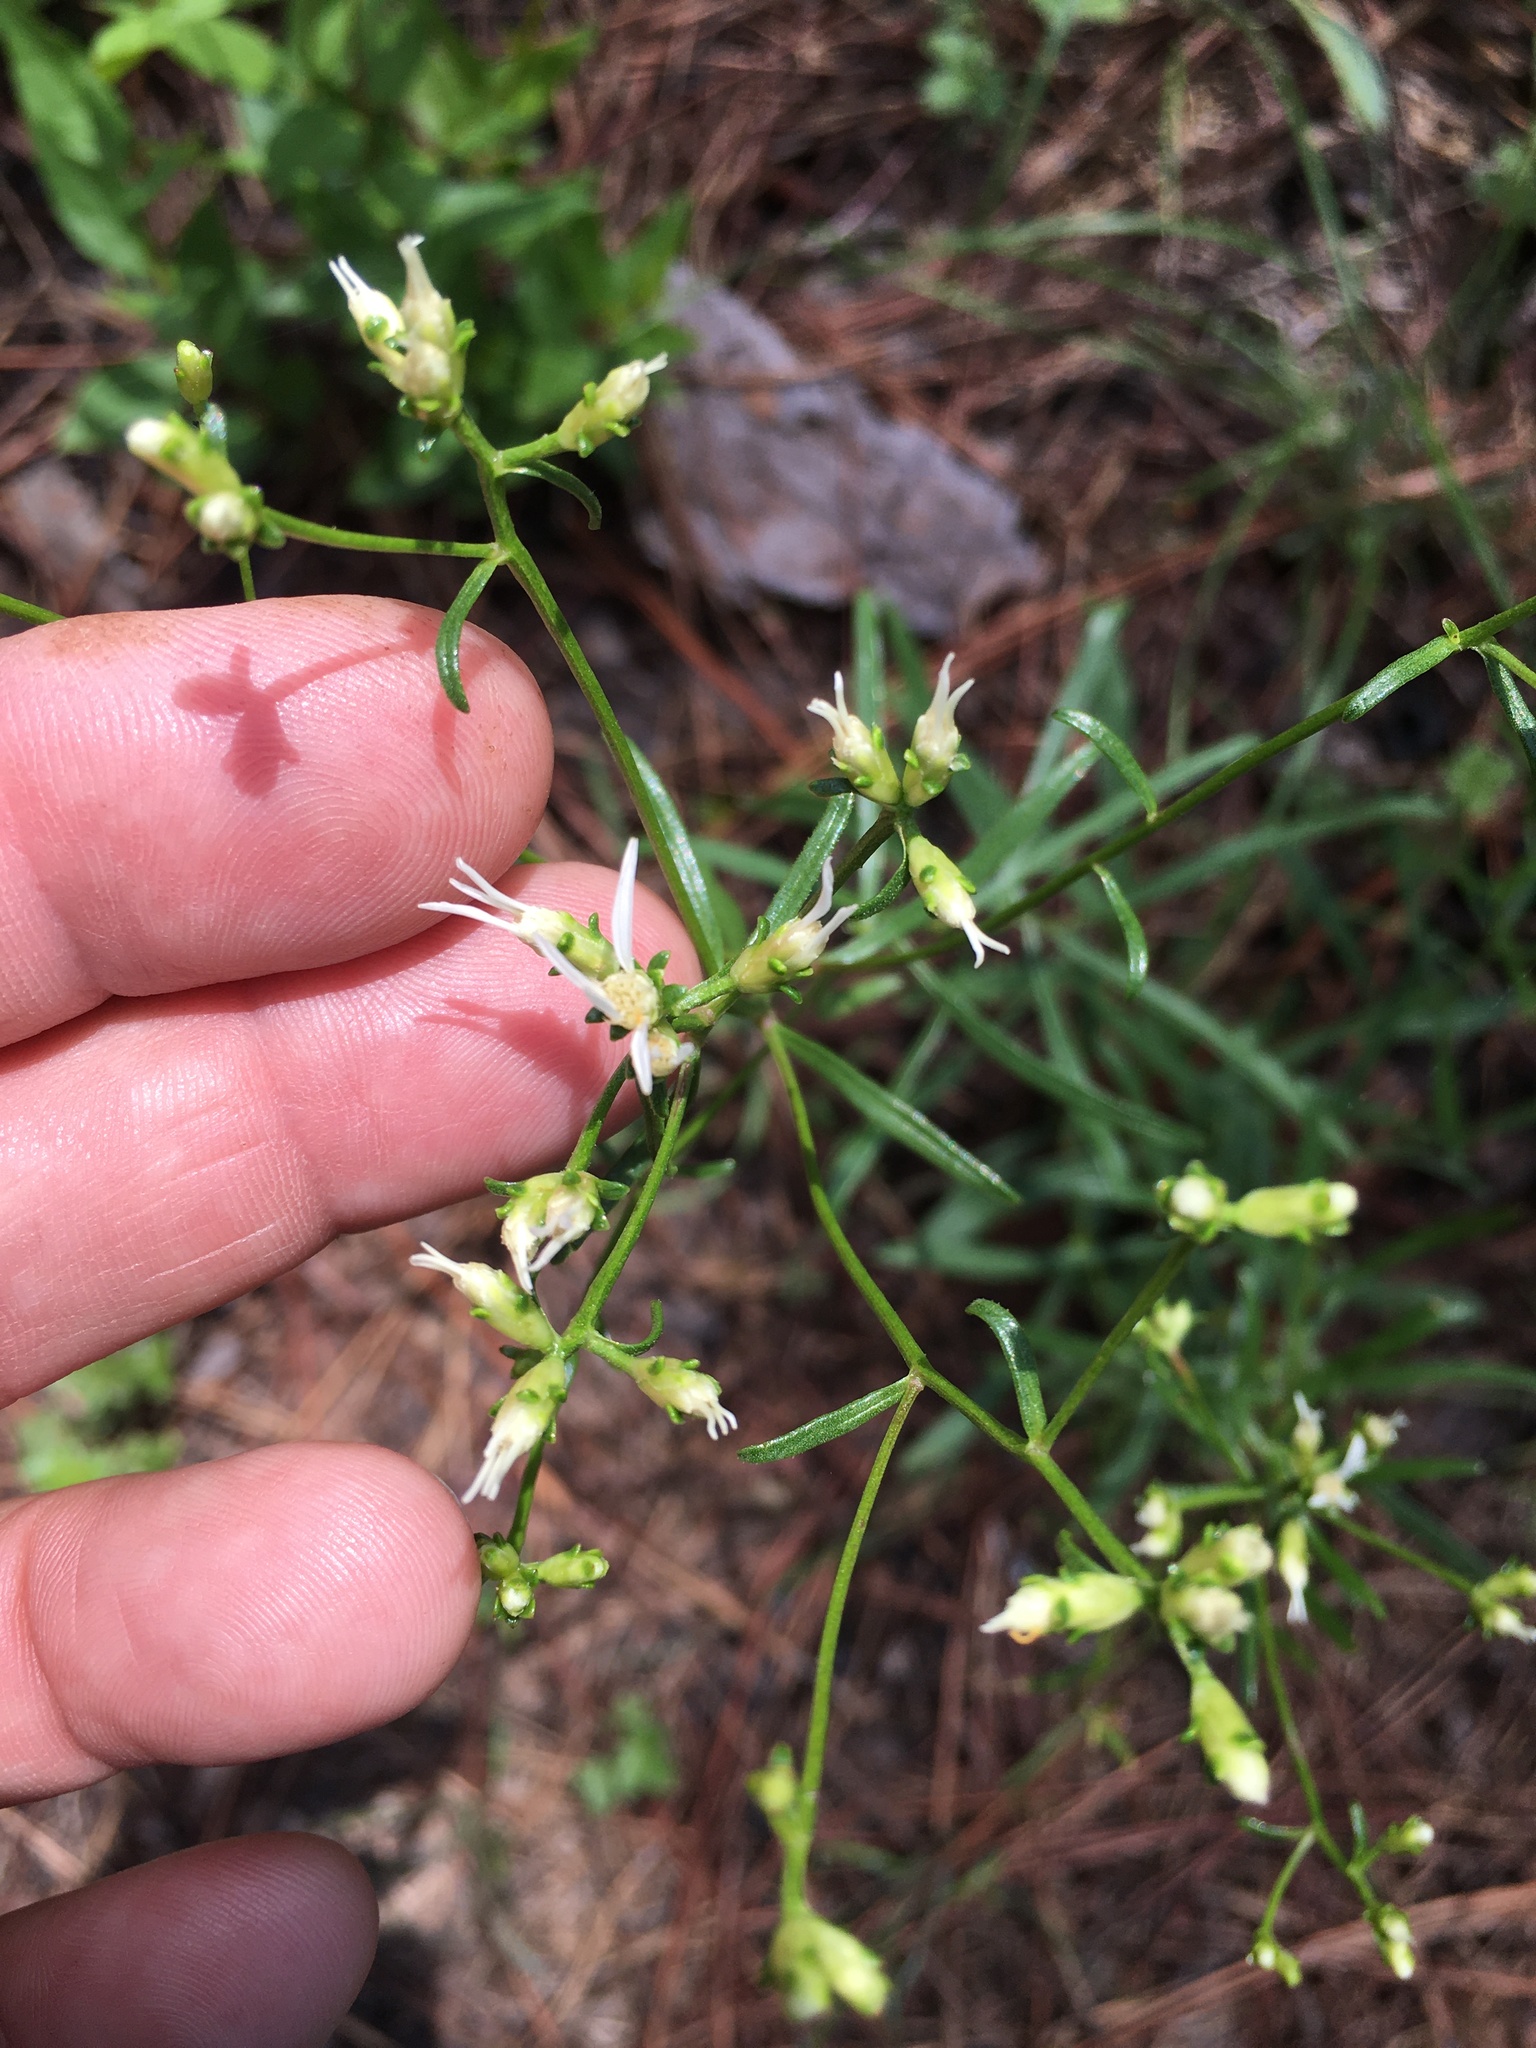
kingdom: Plantae
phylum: Tracheophyta
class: Magnoliopsida
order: Asterales
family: Asteraceae
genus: Sericocarpus
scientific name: Sericocarpus linifolius
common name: Narrow-leaf aster
